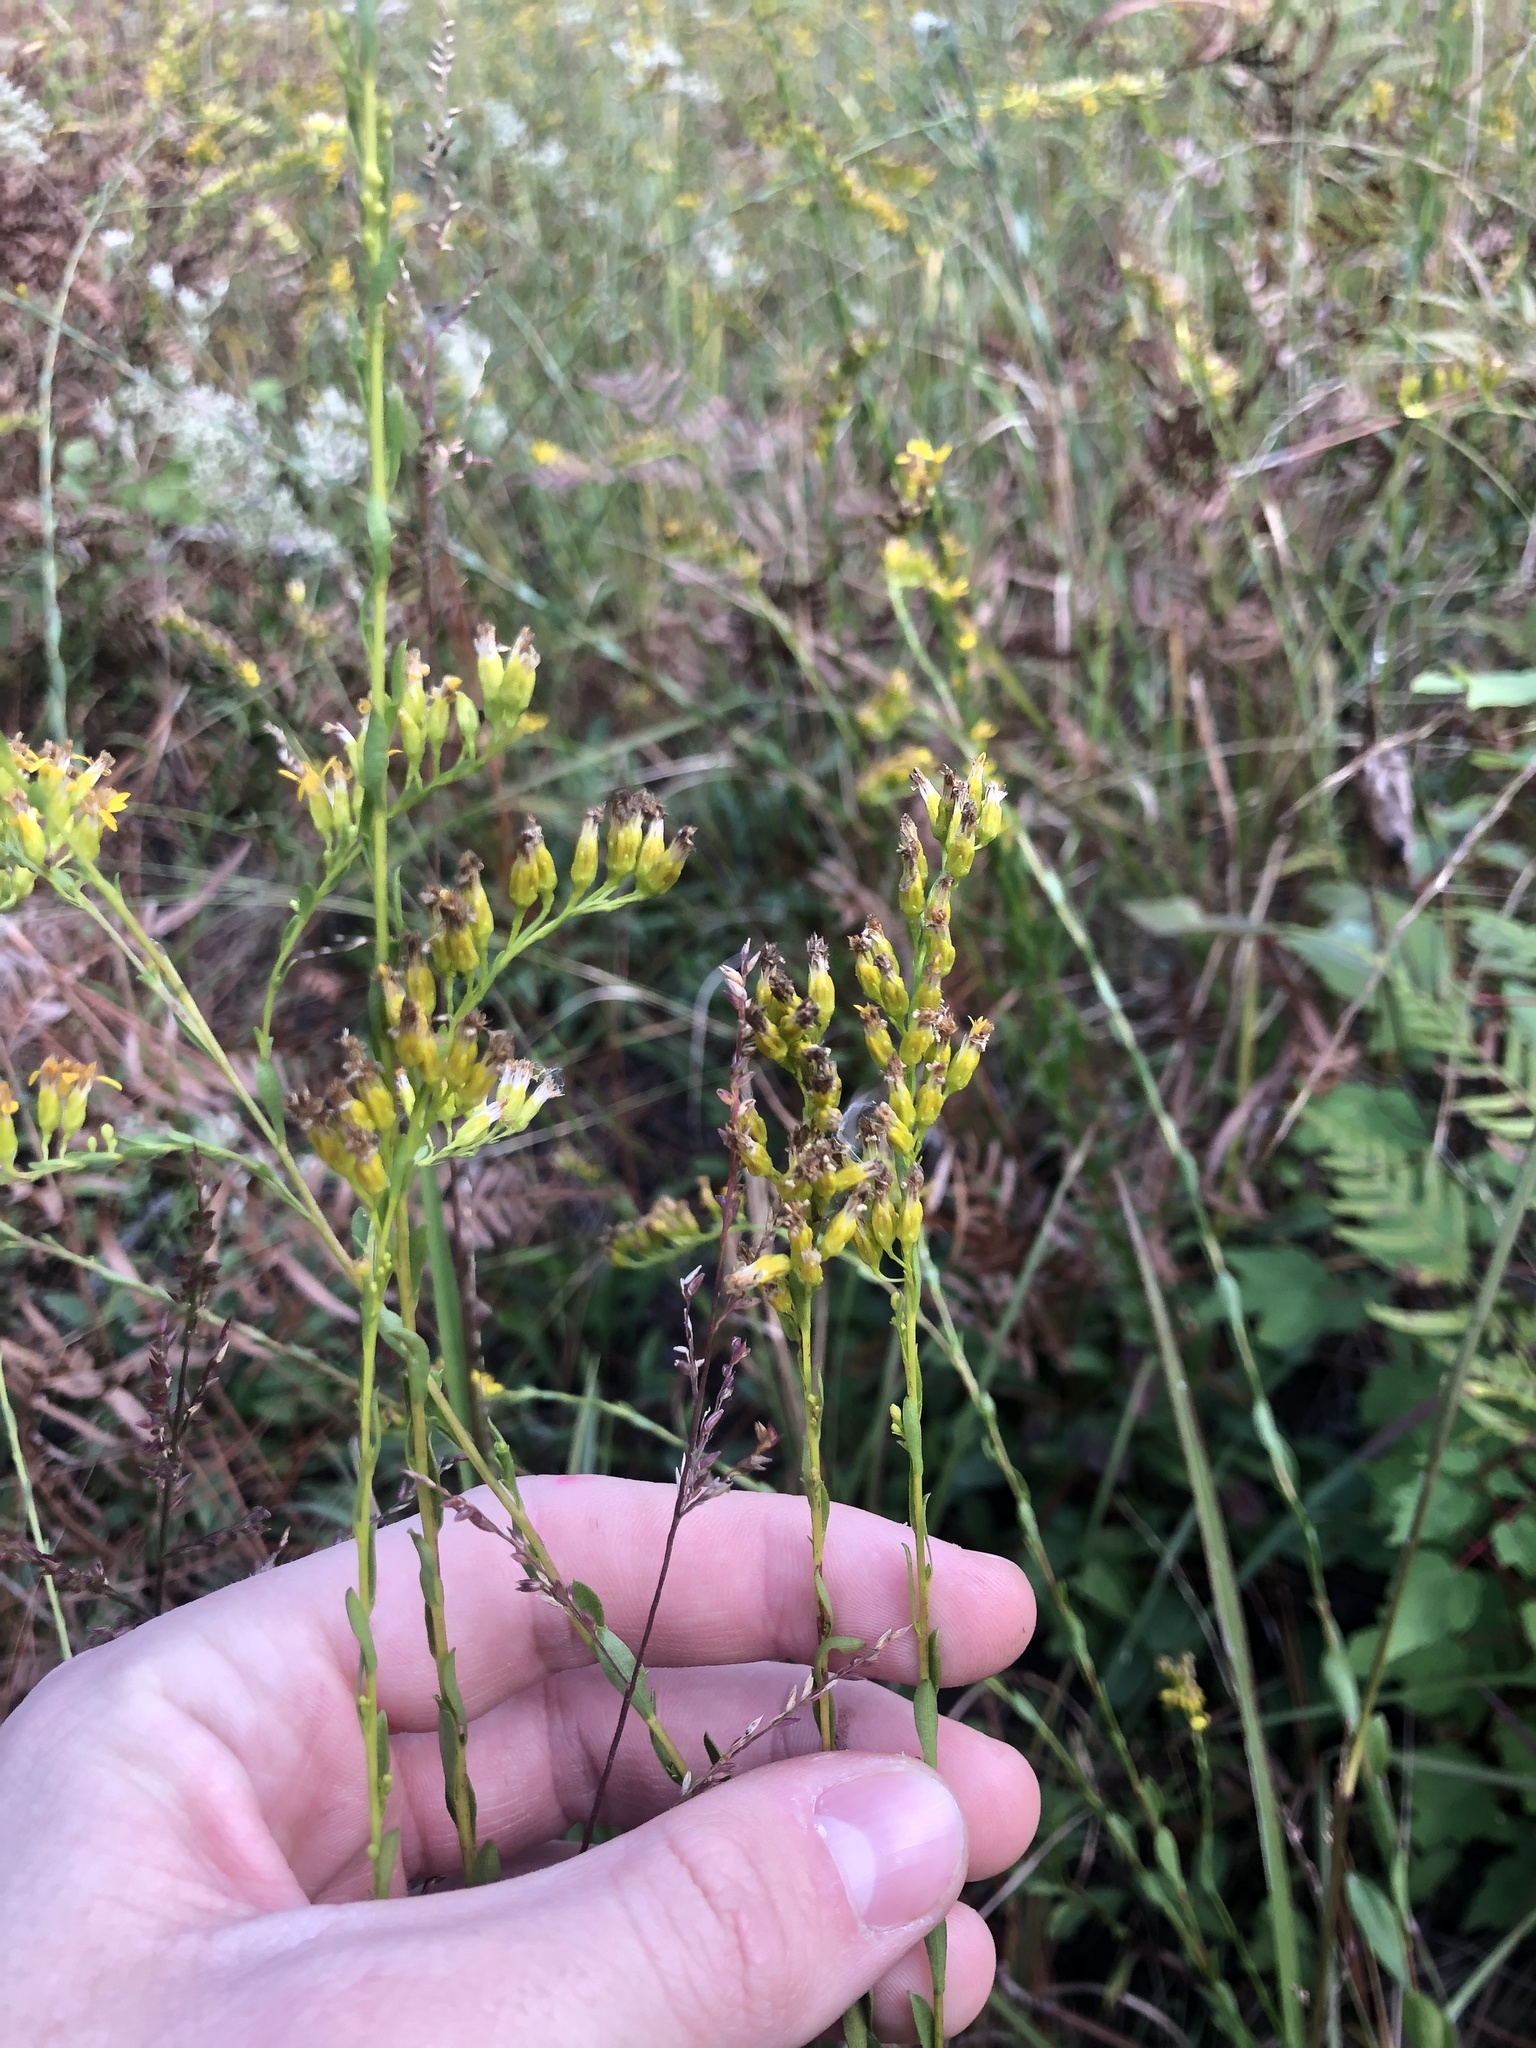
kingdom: Plantae
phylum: Tracheophyta
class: Magnoliopsida
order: Asterales
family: Asteraceae
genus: Solidago
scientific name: Solidago gracillima
